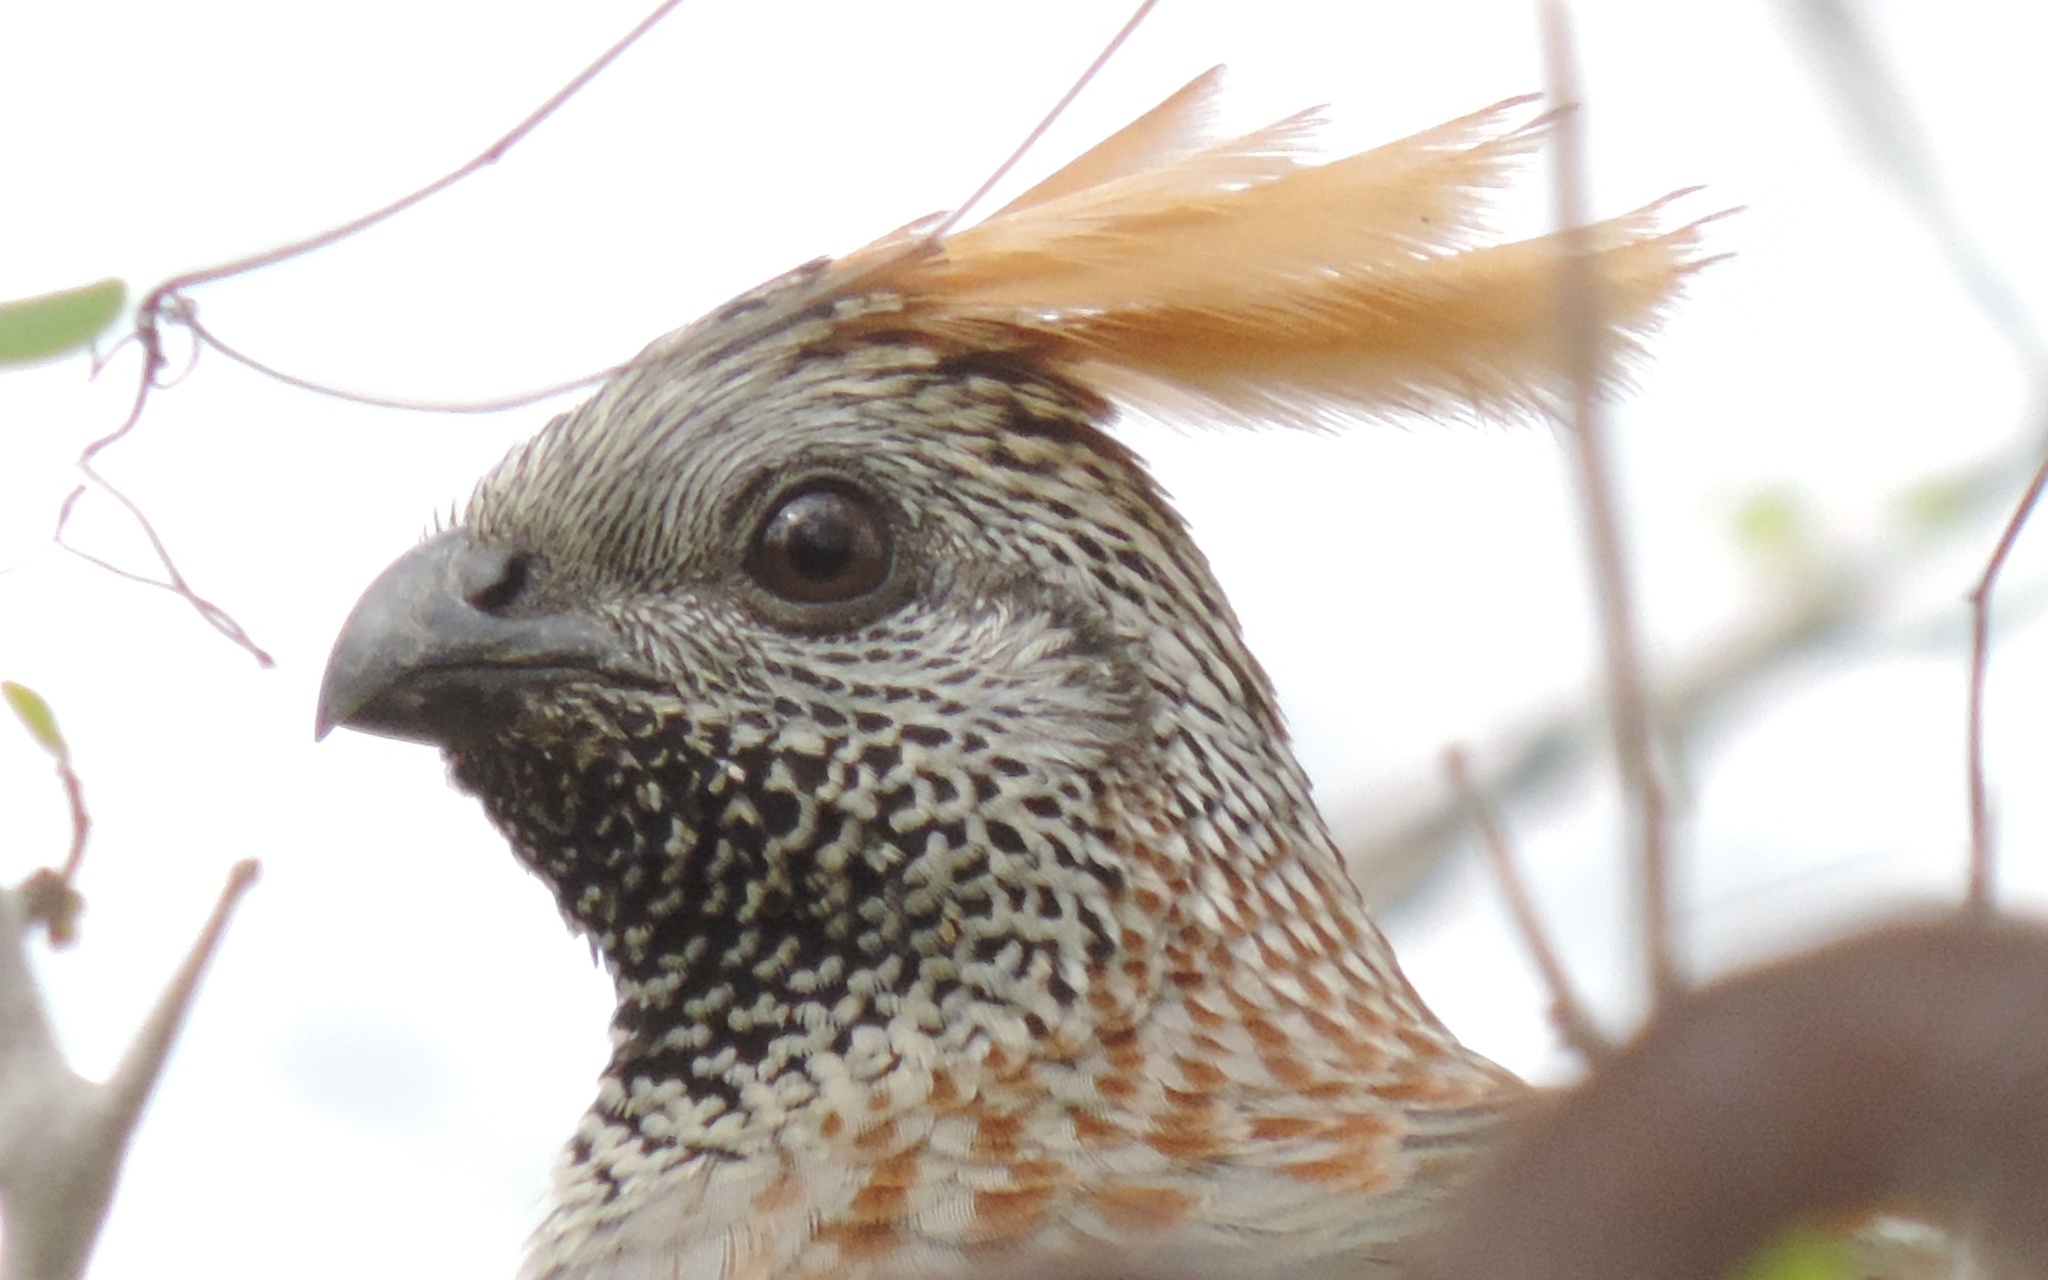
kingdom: Animalia
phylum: Chordata
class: Aves
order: Galliformes
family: Odontophoridae
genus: Callipepla
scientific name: Callipepla douglasii
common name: Elegant quail
